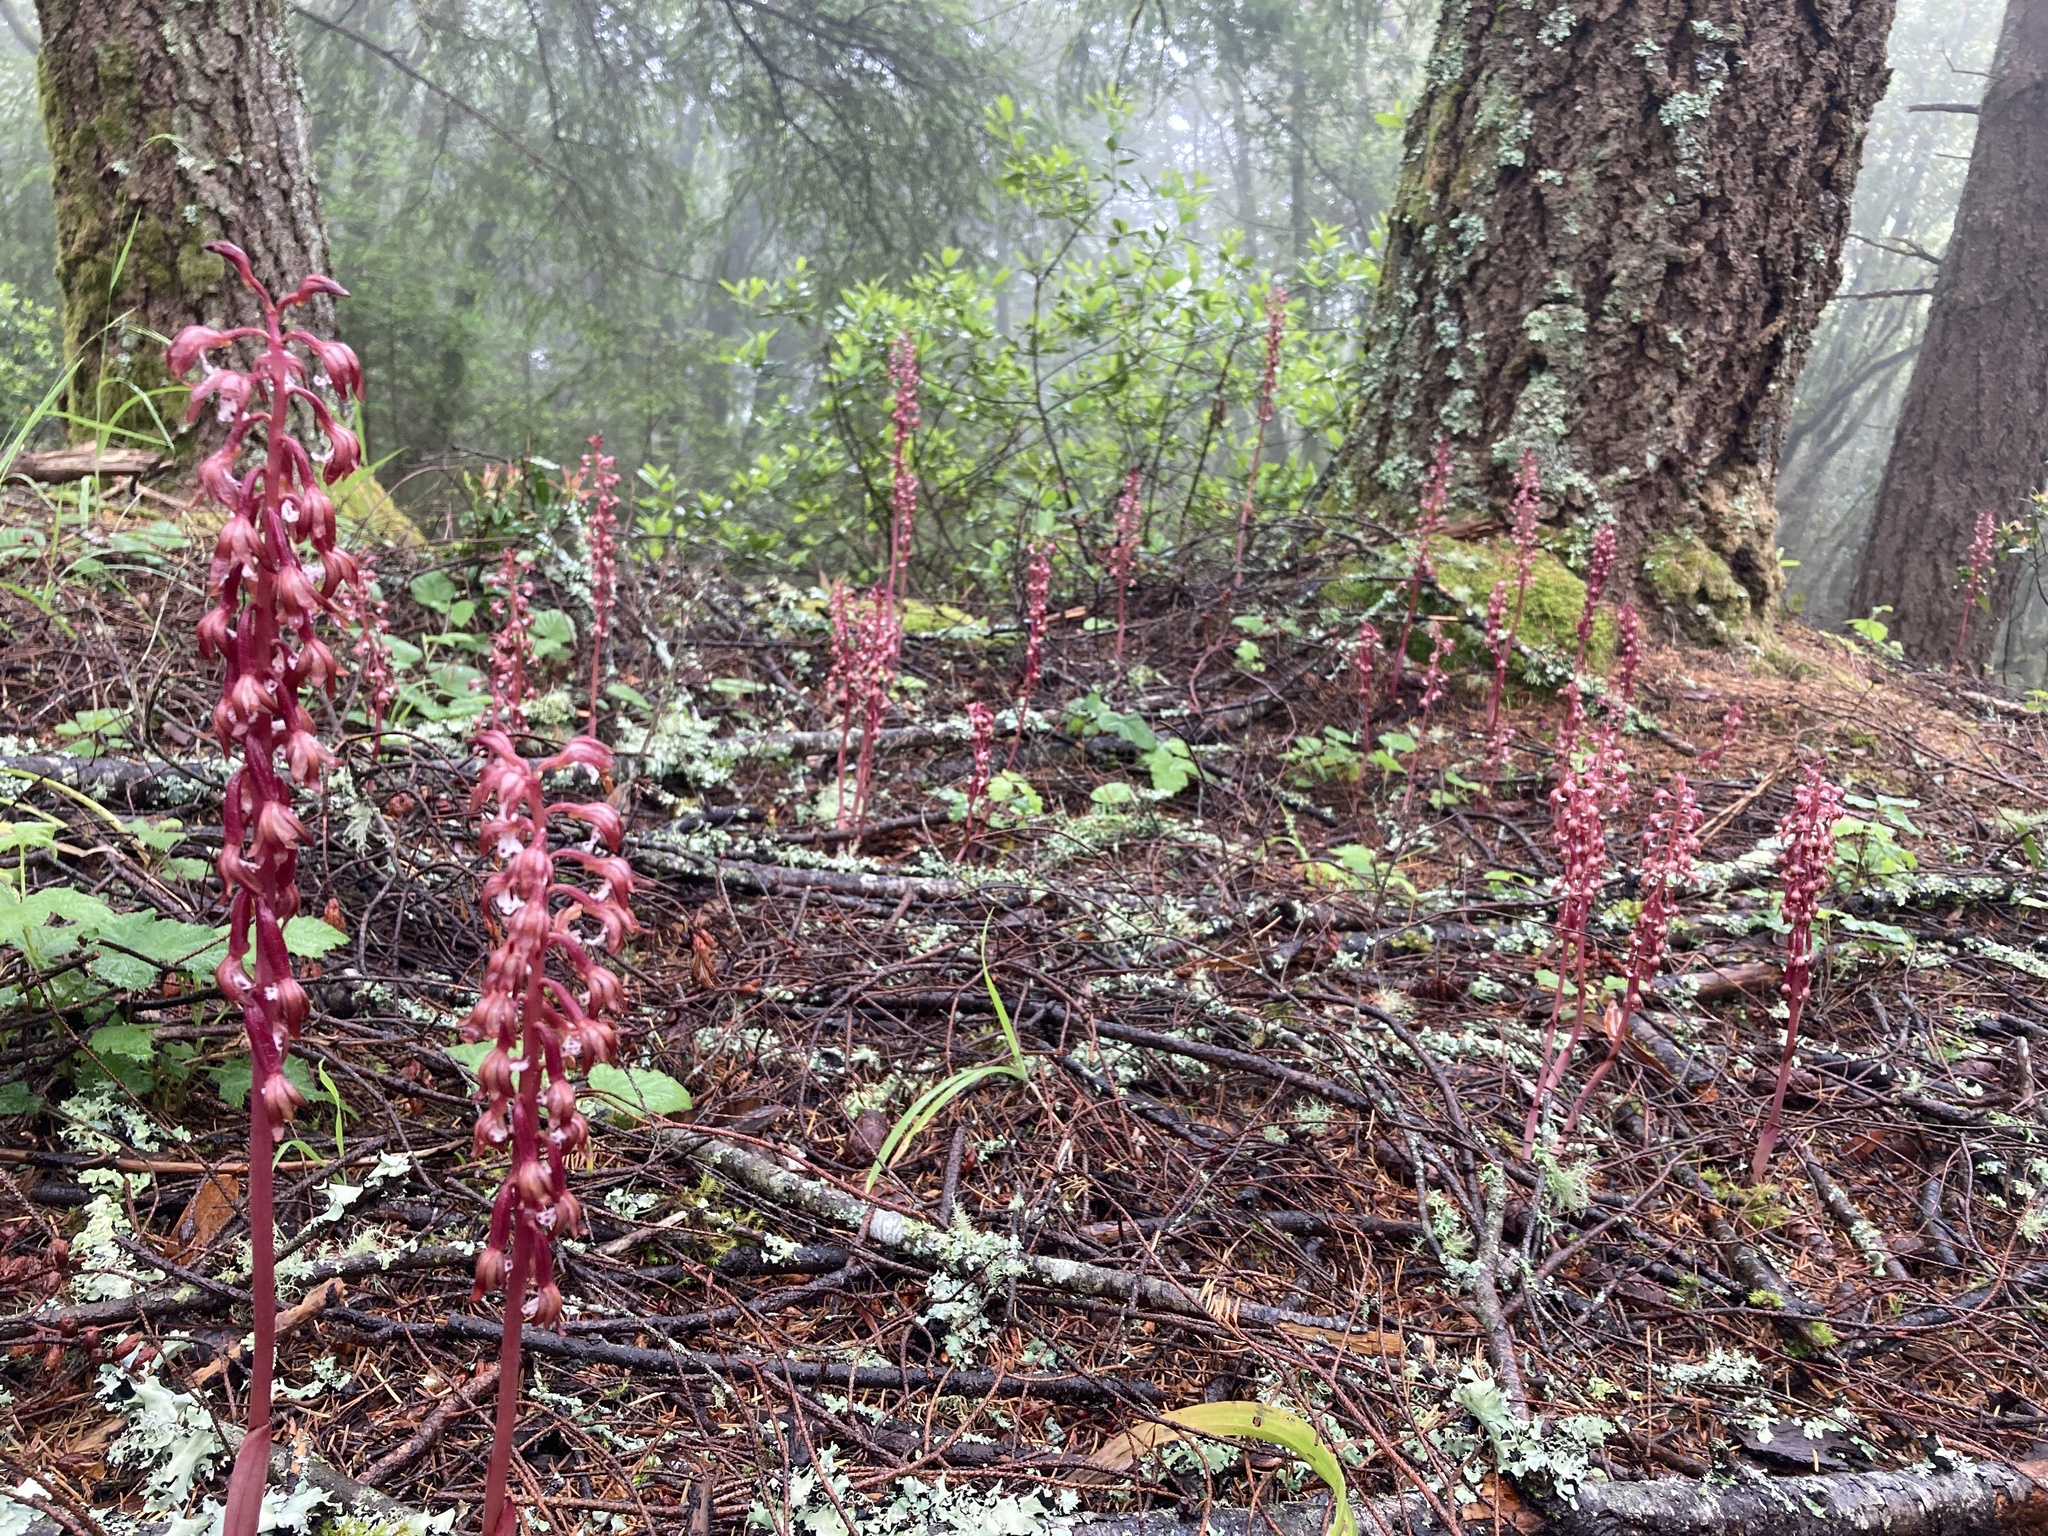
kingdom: Plantae
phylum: Tracheophyta
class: Liliopsida
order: Asparagales
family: Orchidaceae
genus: Corallorhiza
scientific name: Corallorhiza maculata
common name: Spotted coralroot
